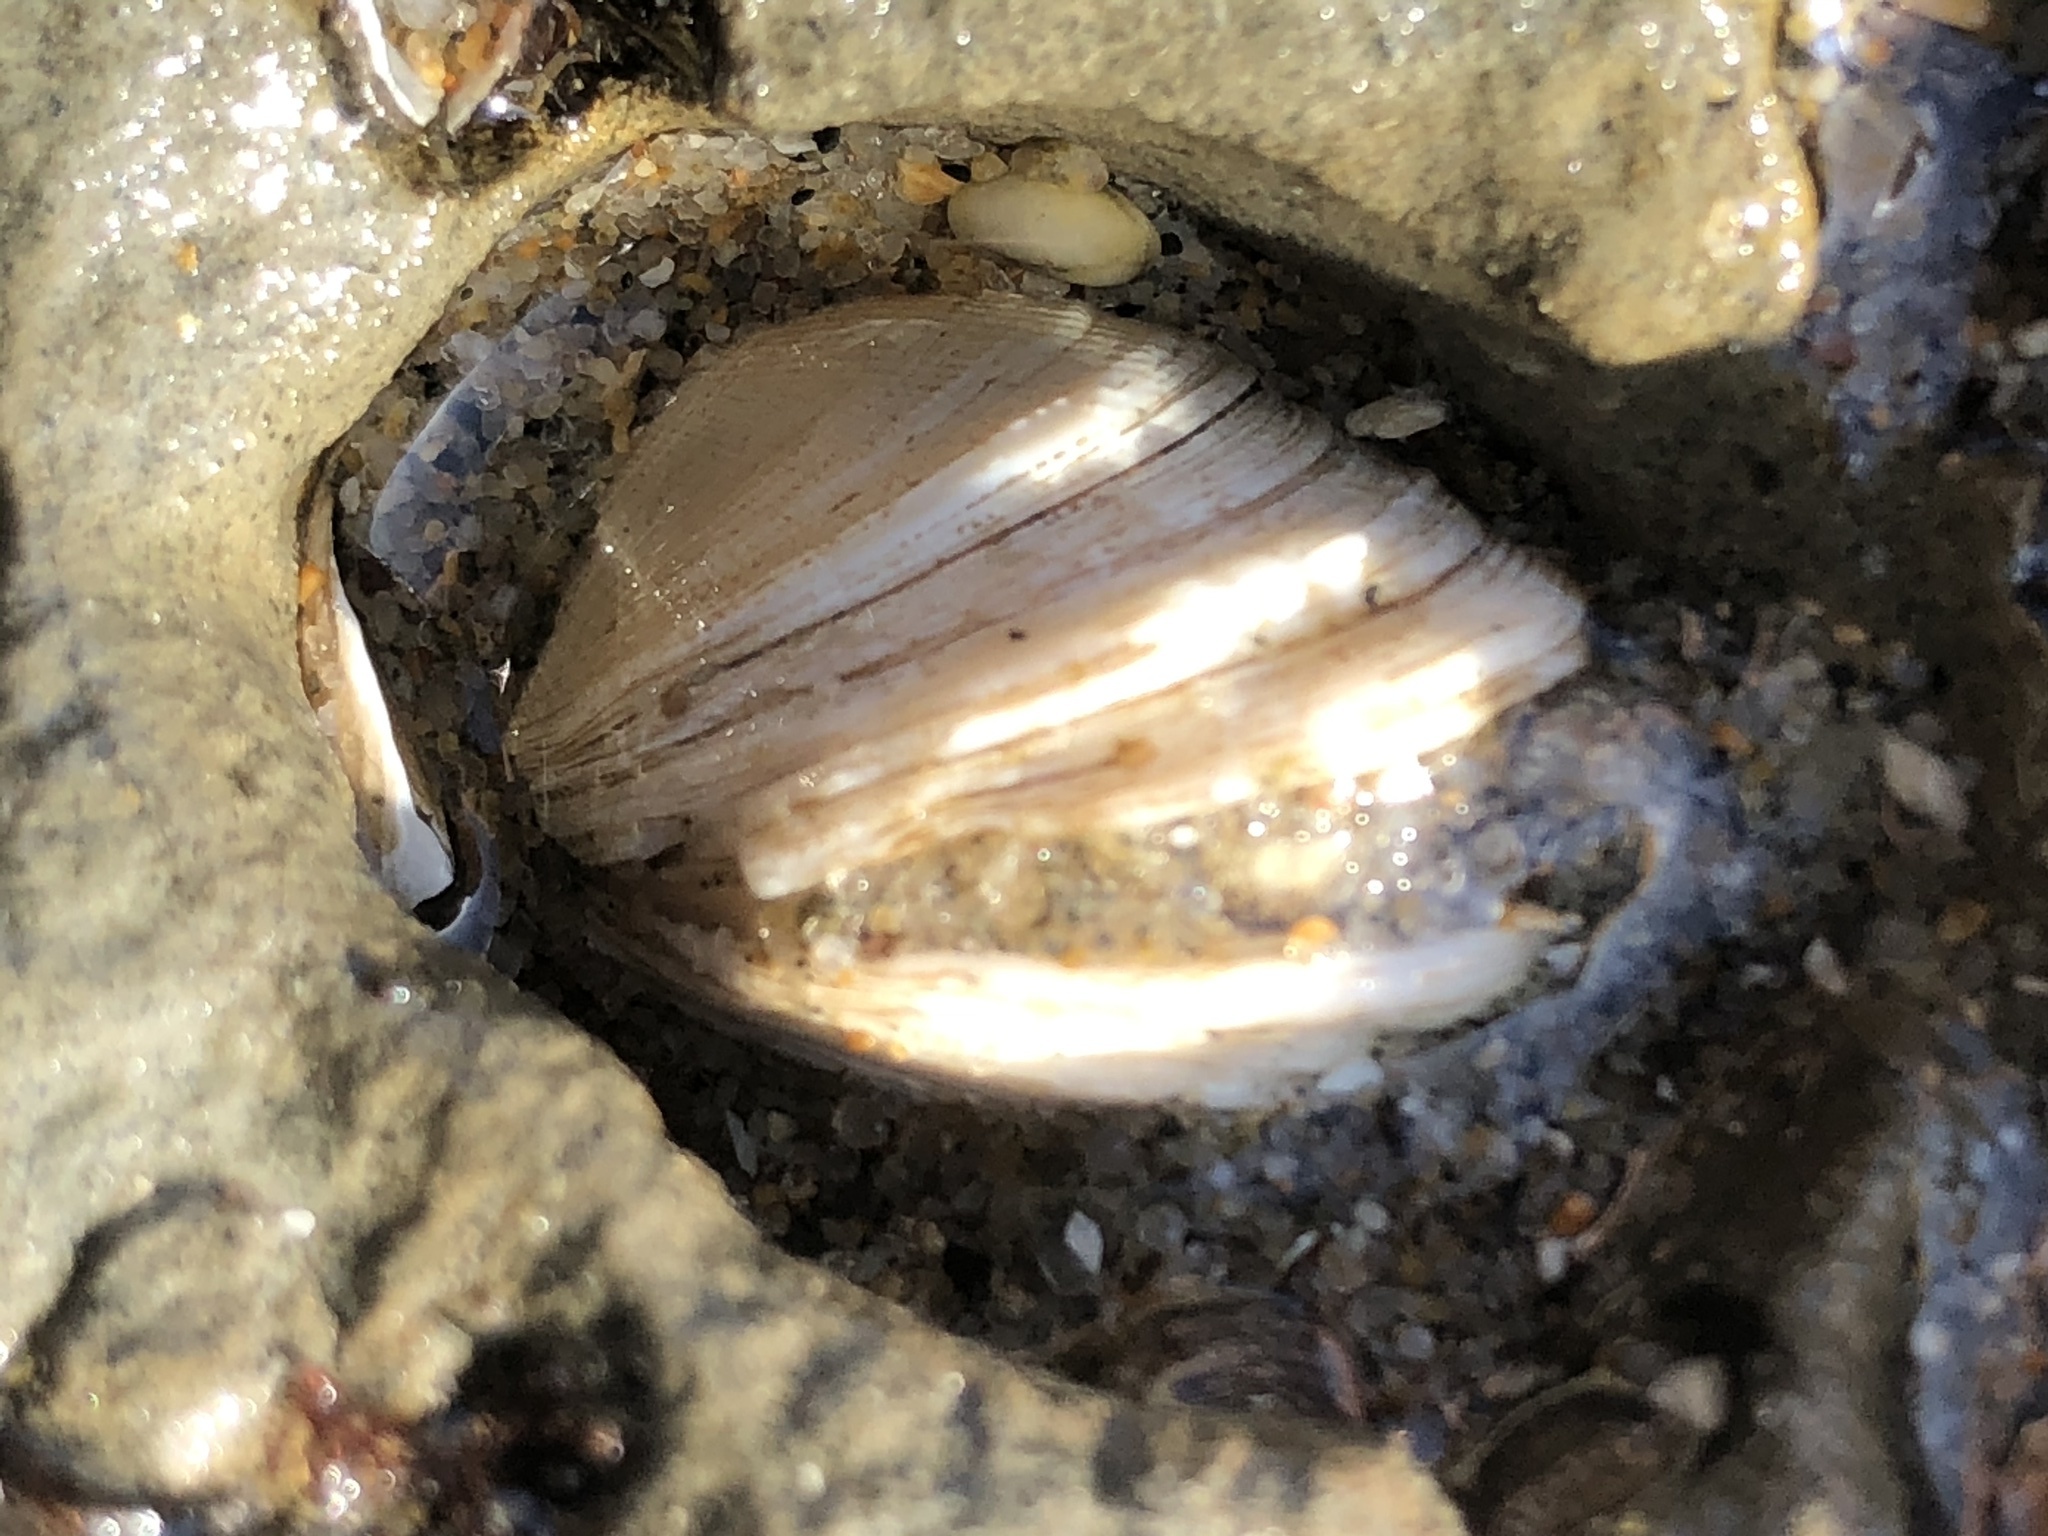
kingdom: Animalia
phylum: Mollusca
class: Bivalvia
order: Venerida
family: Veneridae
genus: Petricola
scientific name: Petricola carditoides
